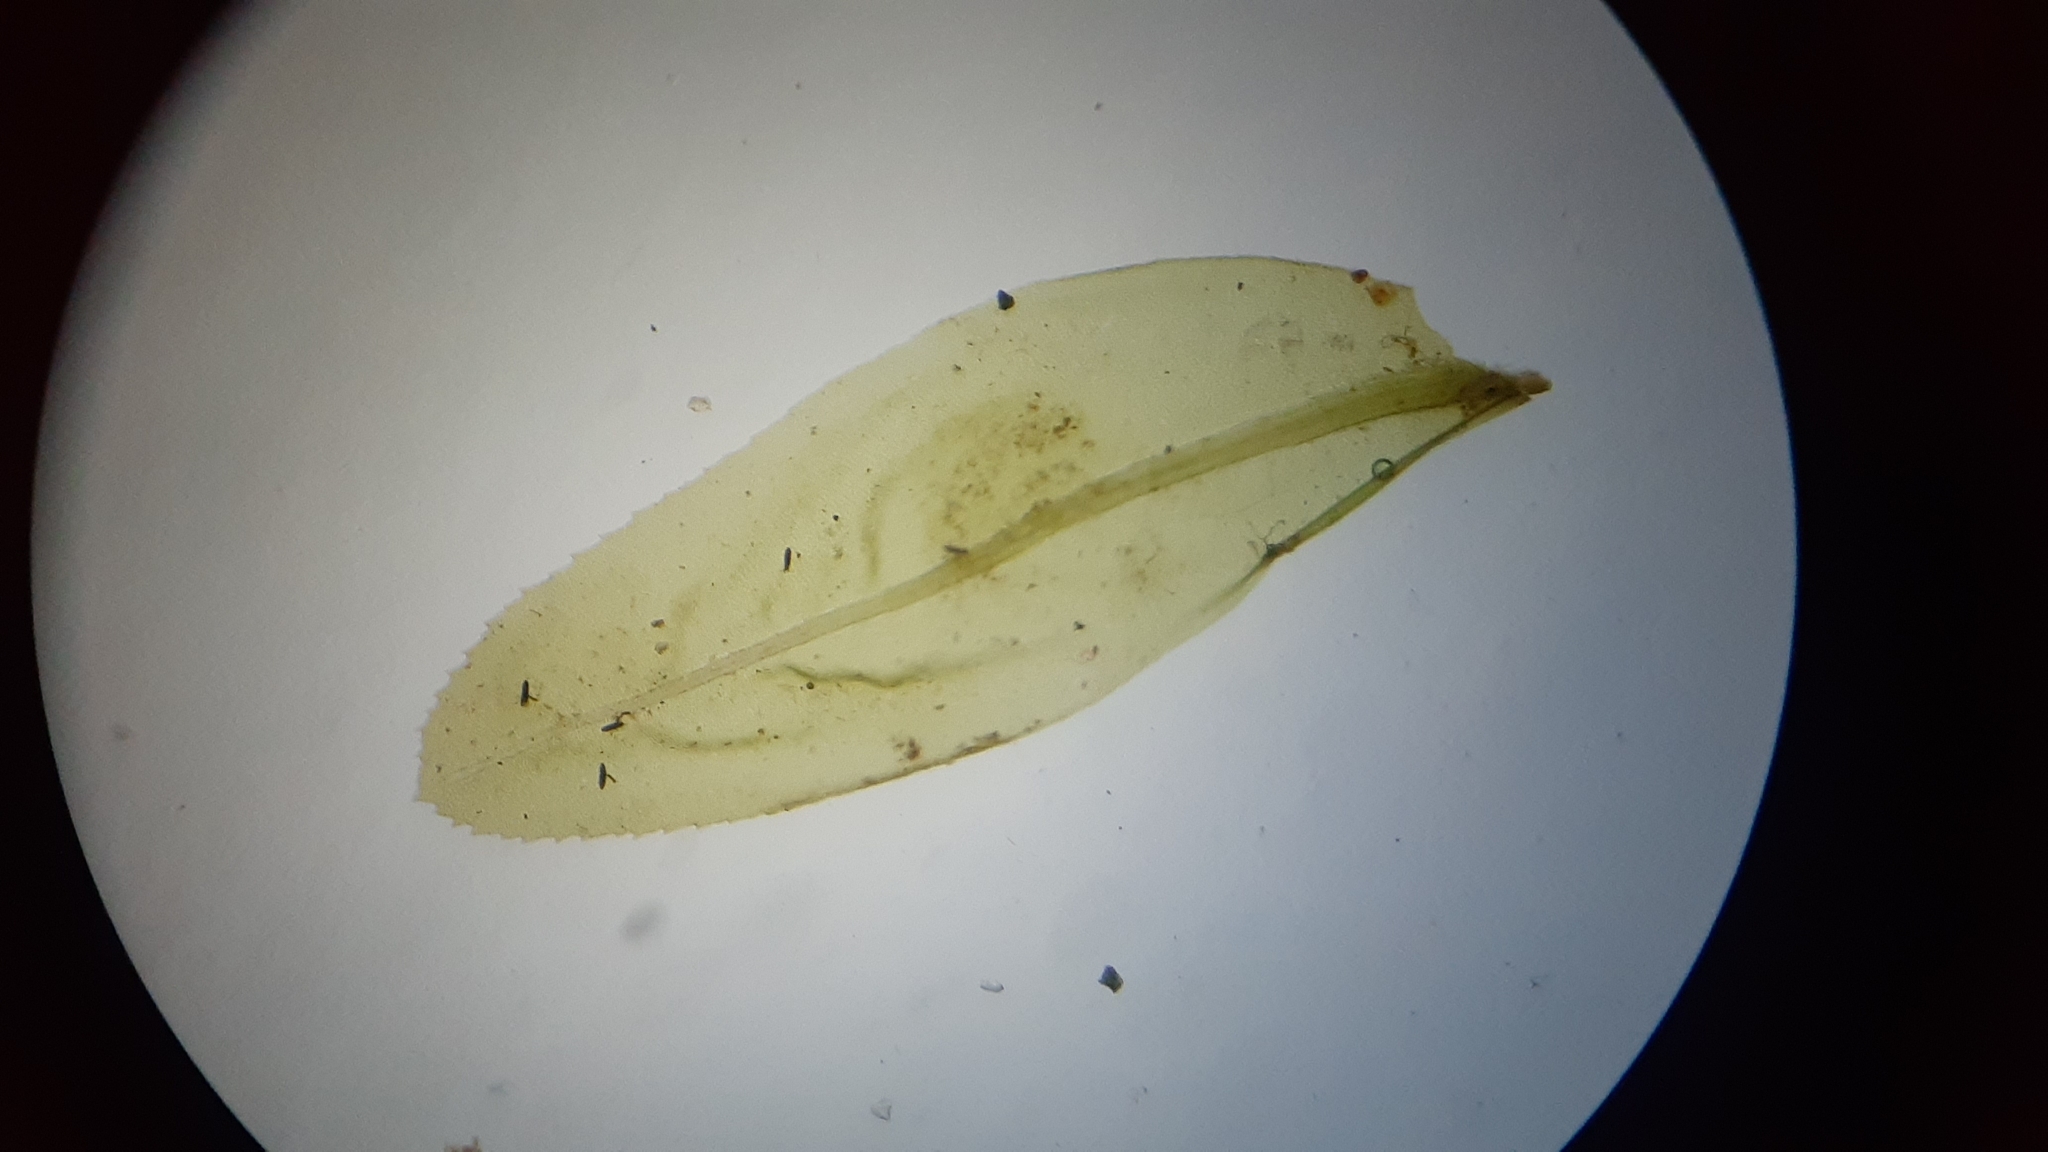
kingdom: Plantae
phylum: Bryophyta
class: Bryopsida
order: Aulacomniales
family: Aulacomniaceae
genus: Aulacomnium
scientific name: Aulacomnium heterostichum
